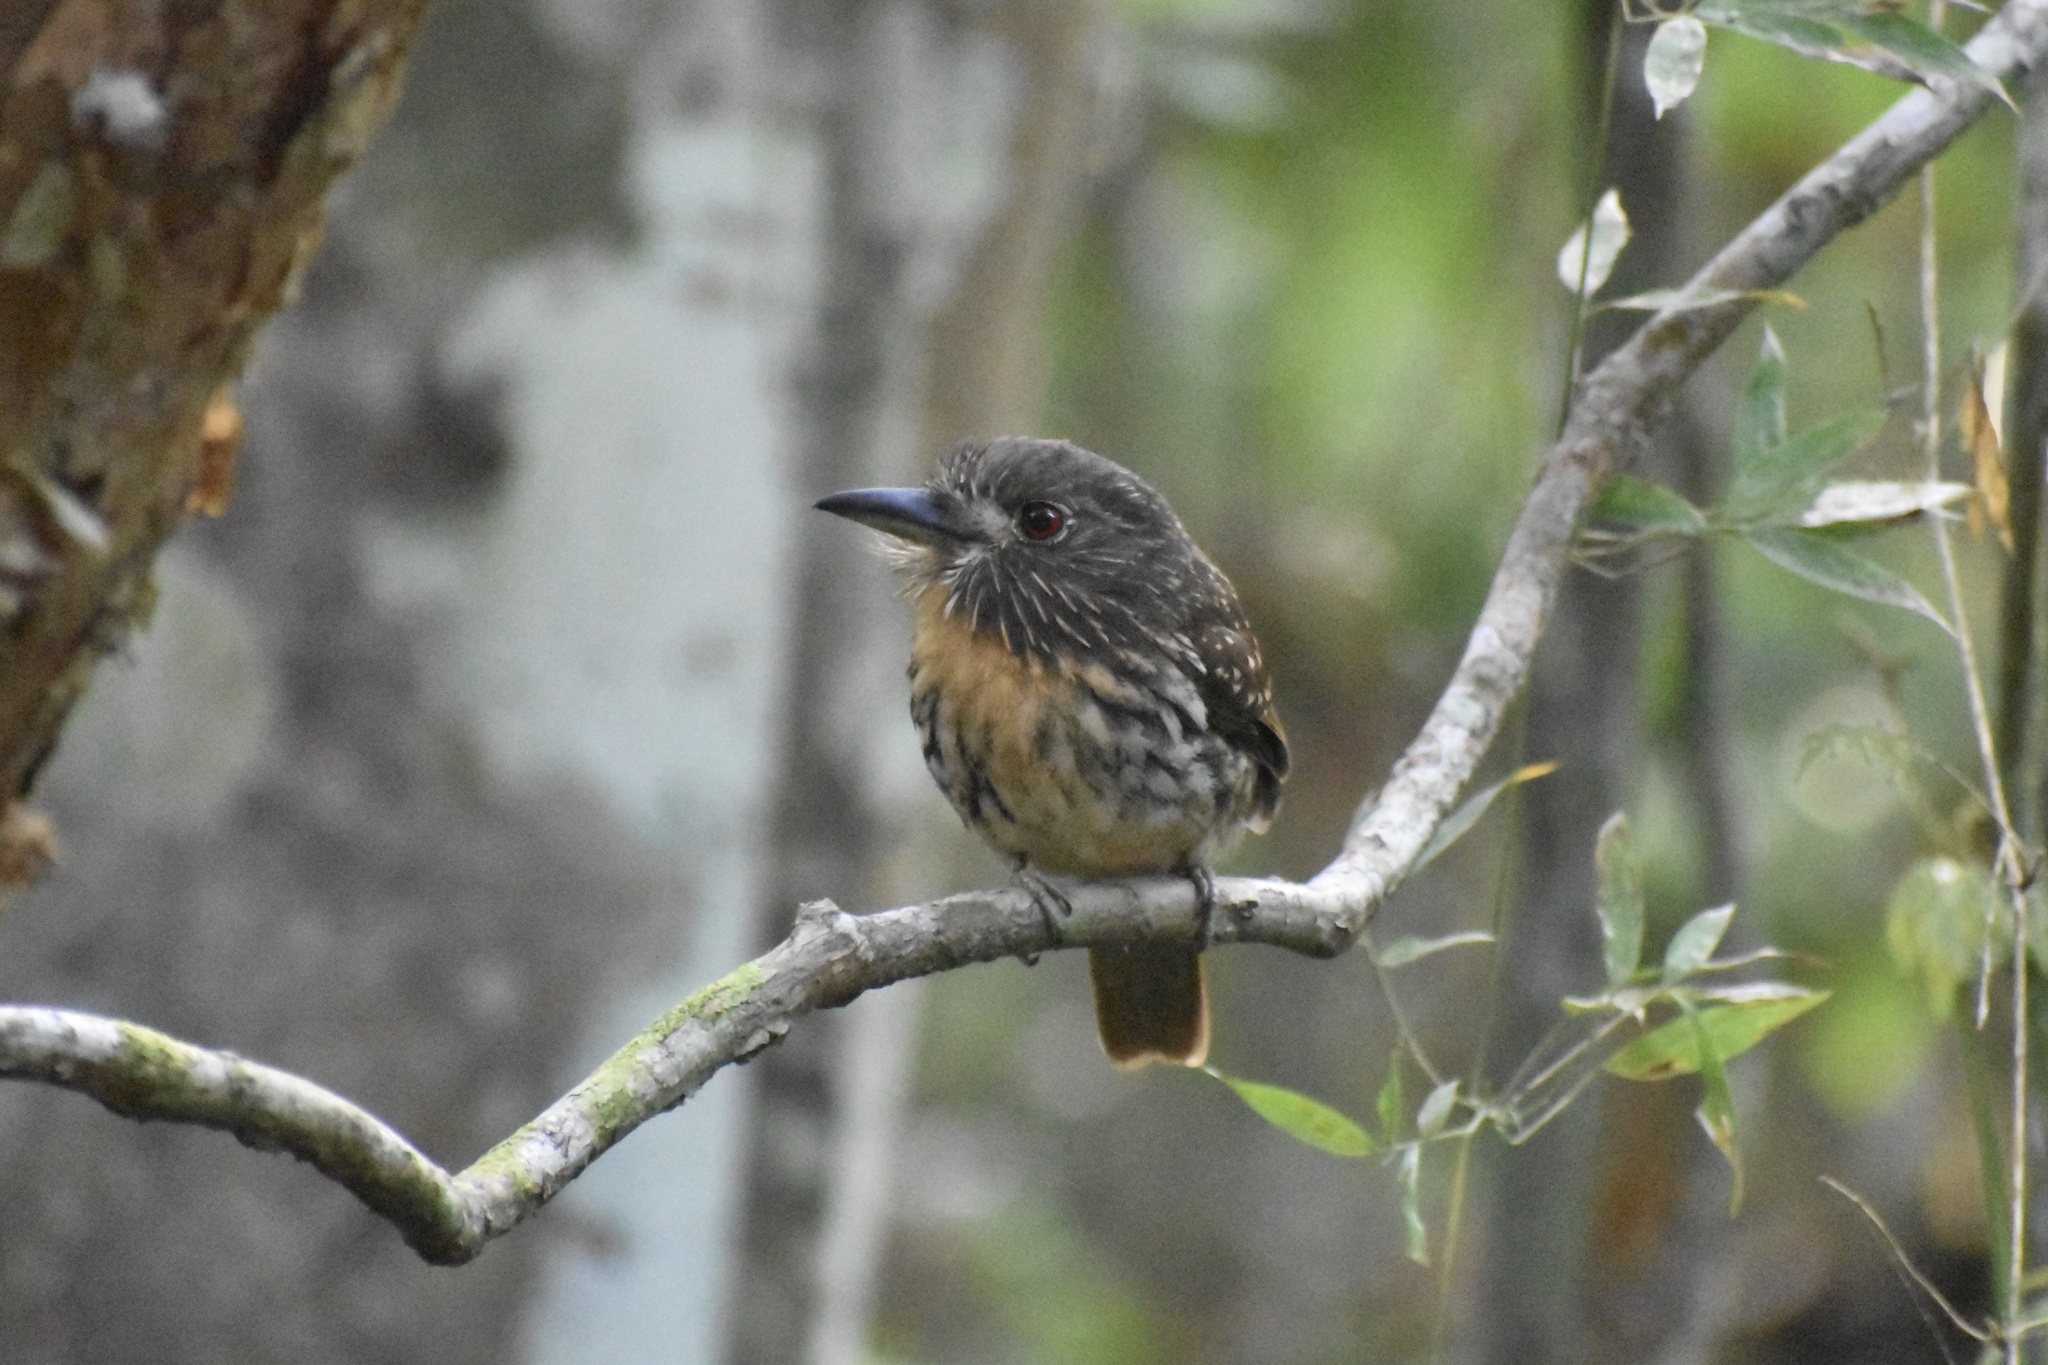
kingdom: Animalia
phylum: Chordata
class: Aves
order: Piciformes
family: Bucconidae
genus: Malacoptila
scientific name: Malacoptila panamensis
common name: White-whiskered puffbird
